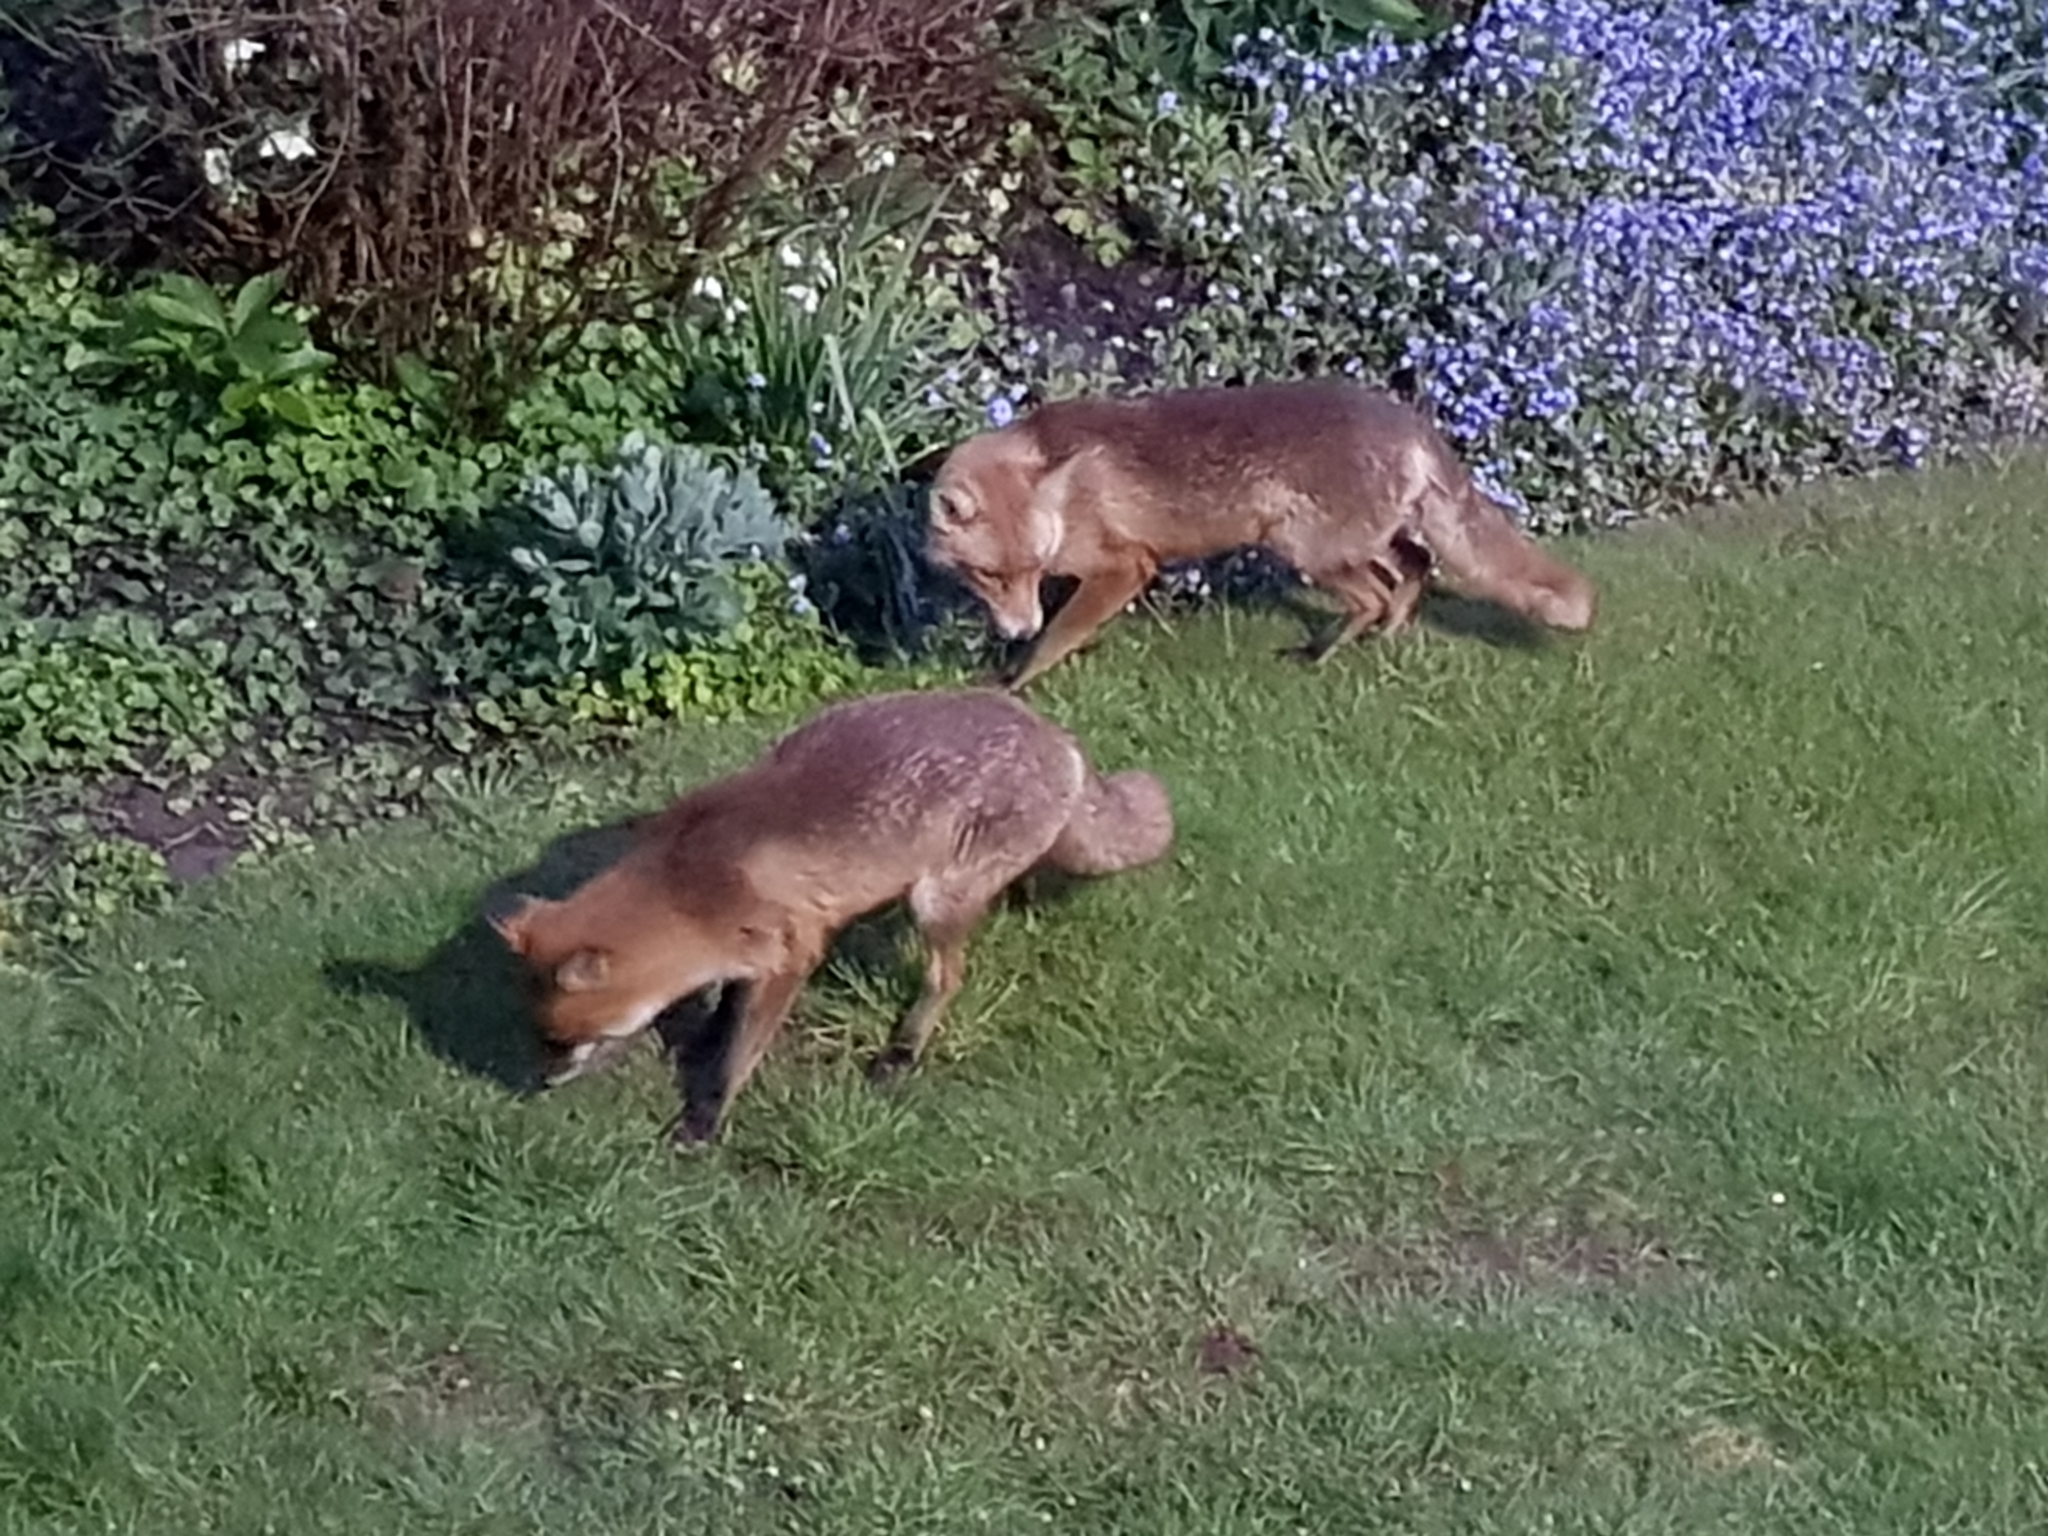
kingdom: Animalia
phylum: Chordata
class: Mammalia
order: Carnivora
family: Mustelidae
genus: Meles
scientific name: Meles meles
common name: Eurasian badger
